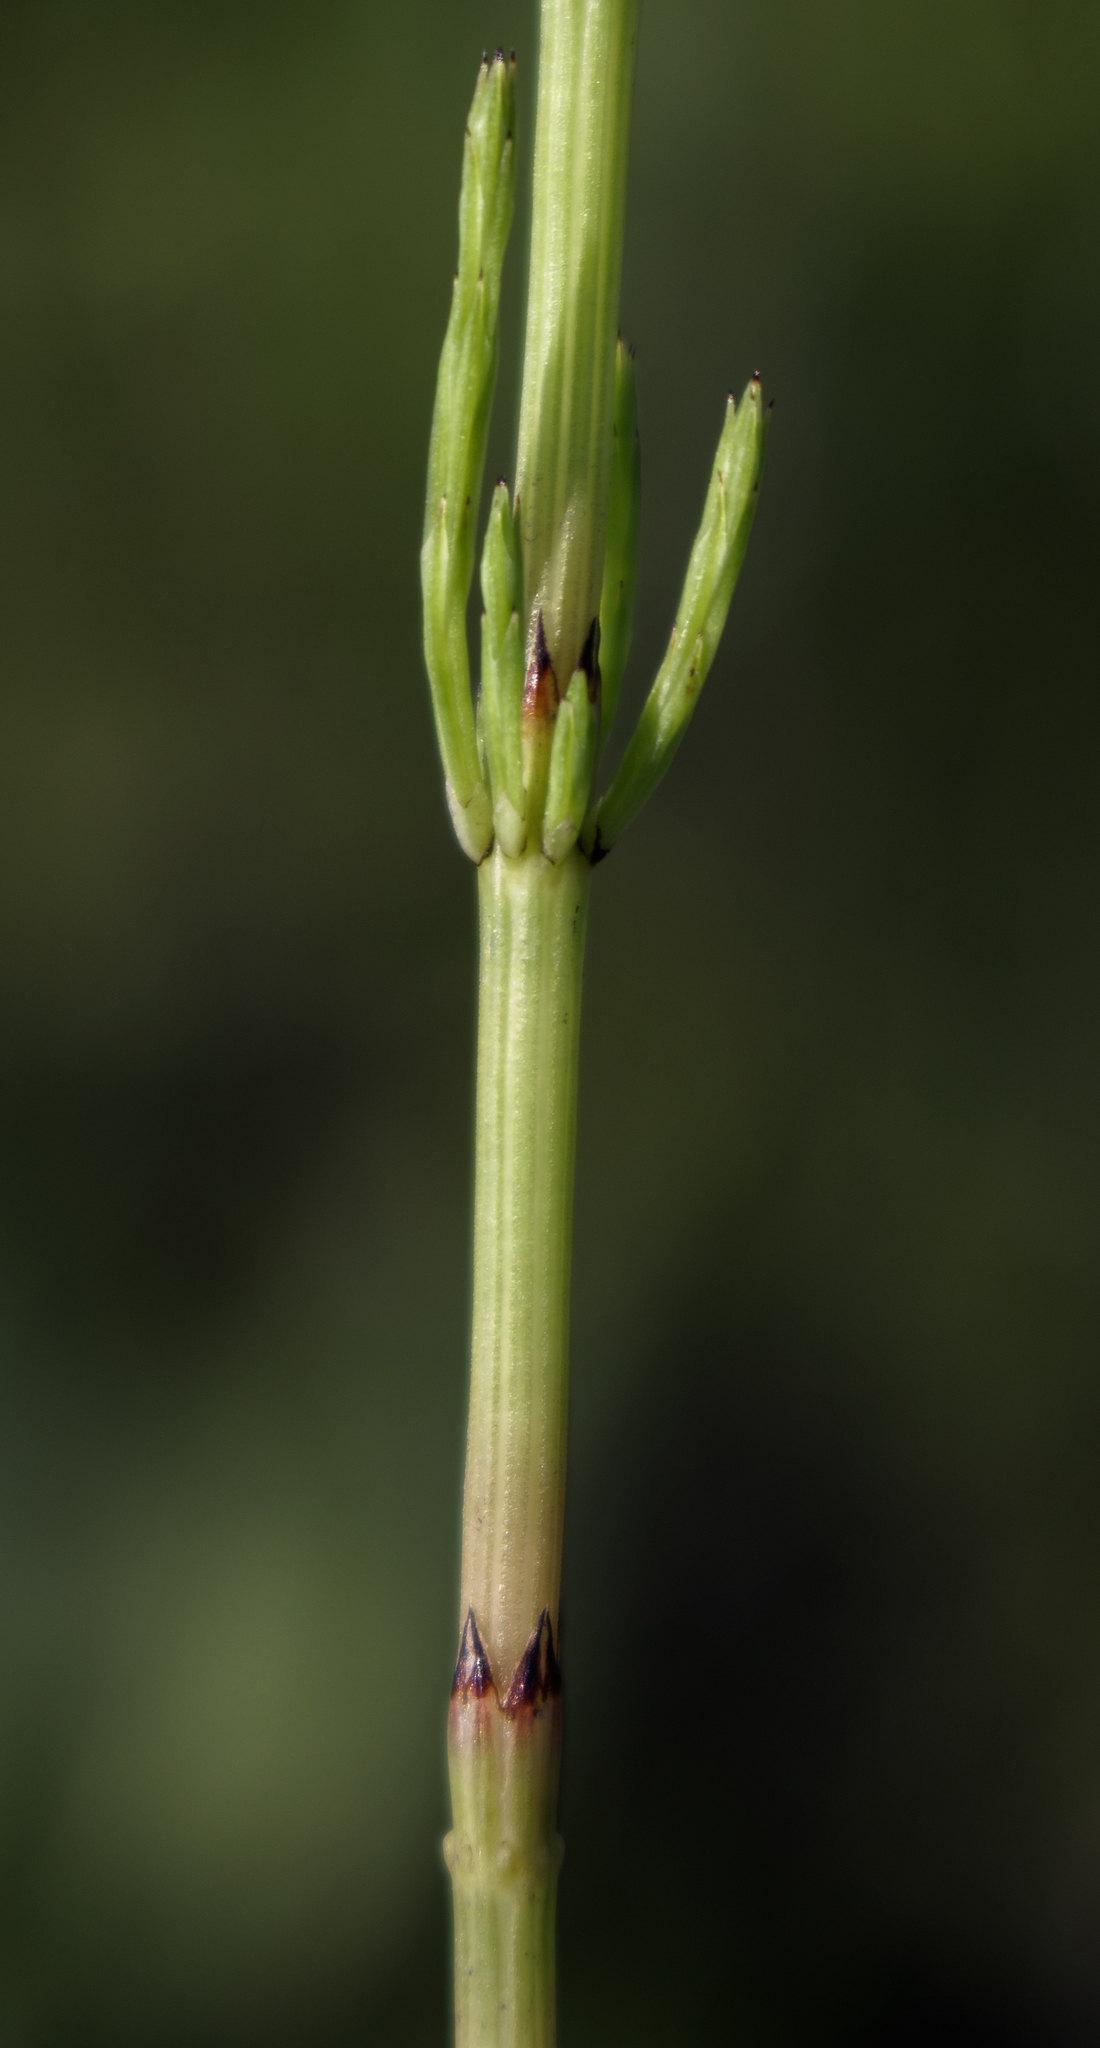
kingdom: Plantae
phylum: Tracheophyta
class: Polypodiopsida
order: Equisetales
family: Equisetaceae
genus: Equisetum
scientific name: Equisetum arvense
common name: Field horsetail
